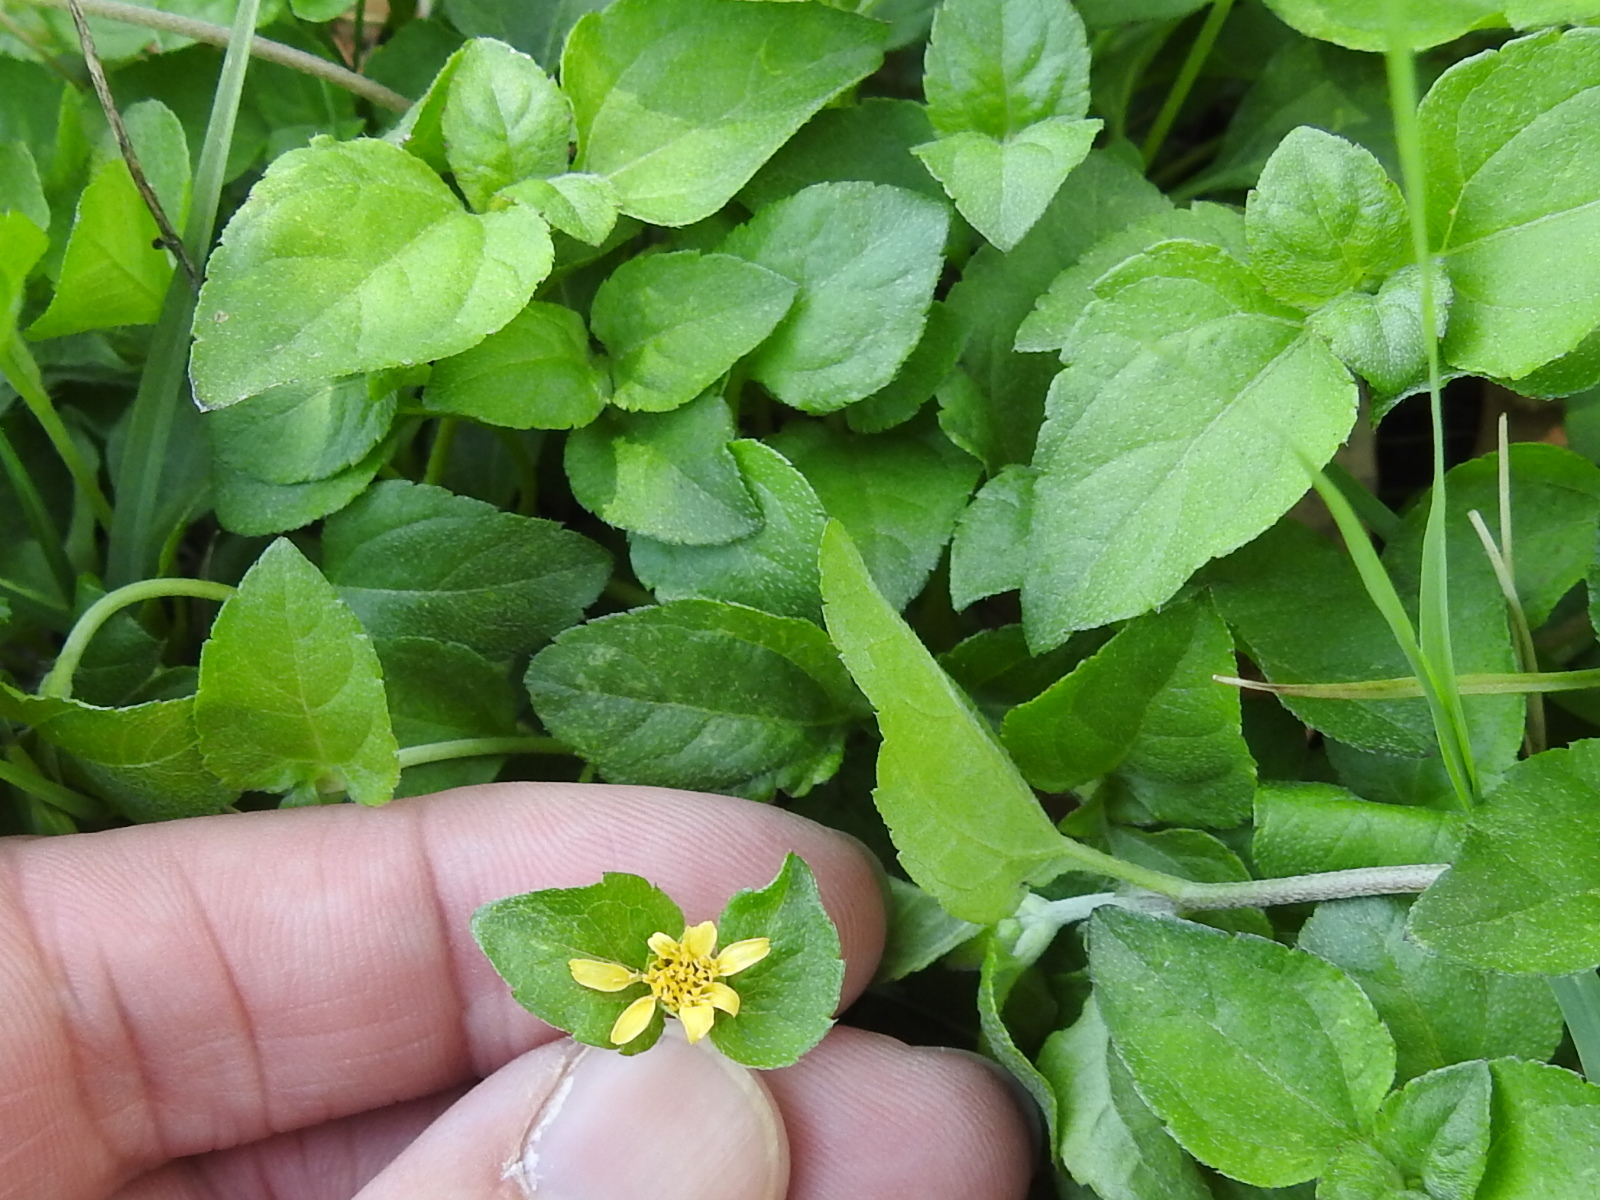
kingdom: Plantae
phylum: Tracheophyta
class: Magnoliopsida
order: Asterales
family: Asteraceae
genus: Calyptocarpus
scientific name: Calyptocarpus vialis
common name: Straggler daisy
